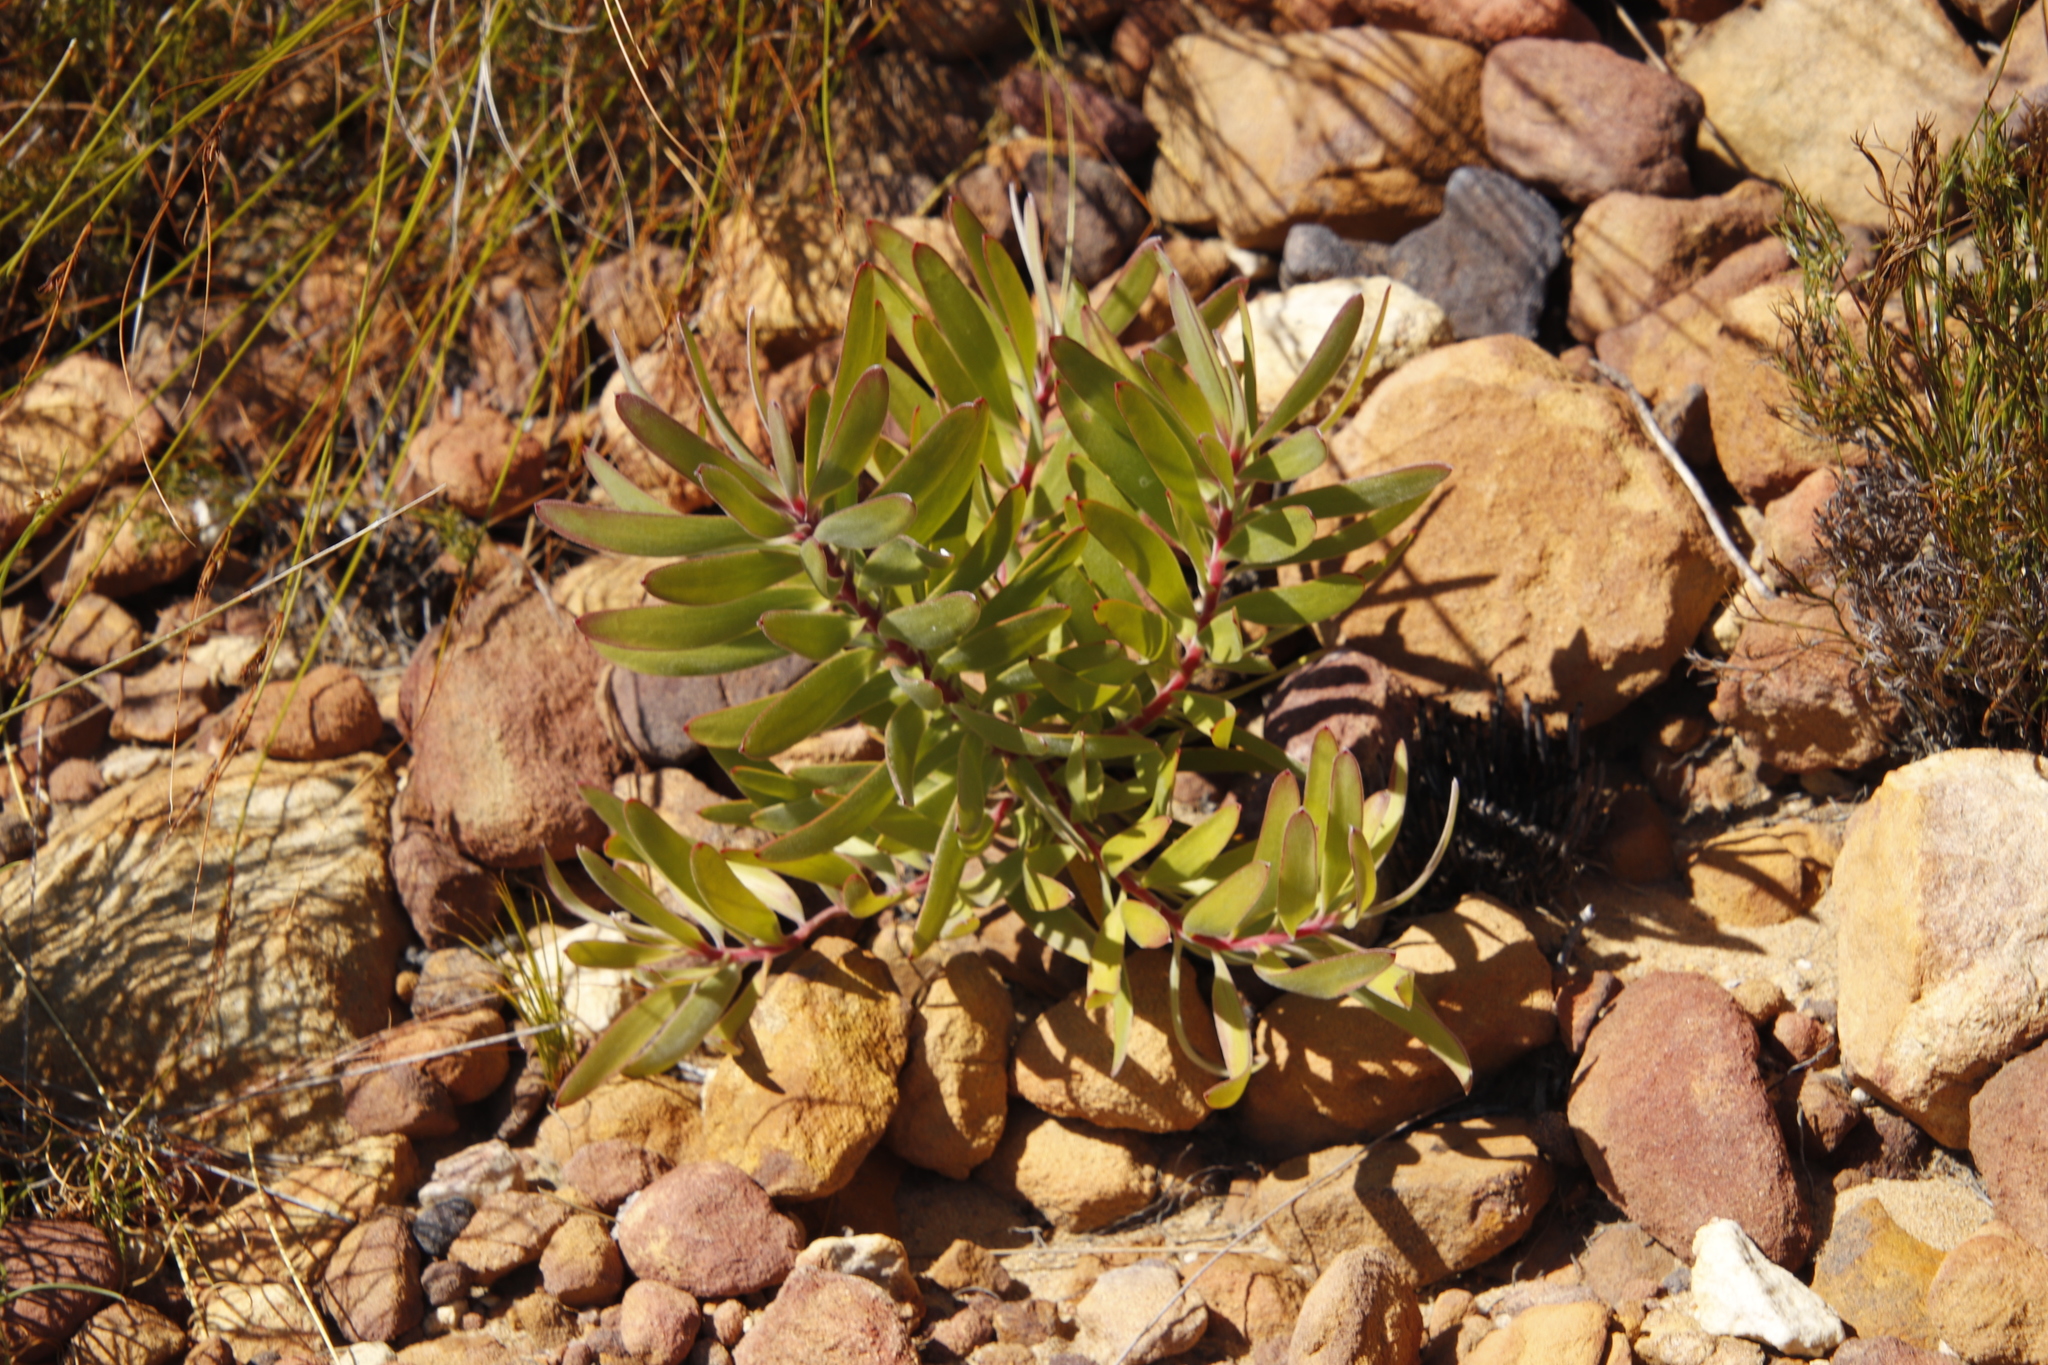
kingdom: Plantae
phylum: Tracheophyta
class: Magnoliopsida
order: Proteales
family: Proteaceae
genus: Leucadendron
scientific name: Leucadendron laureolum
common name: Golden sunshinebush
